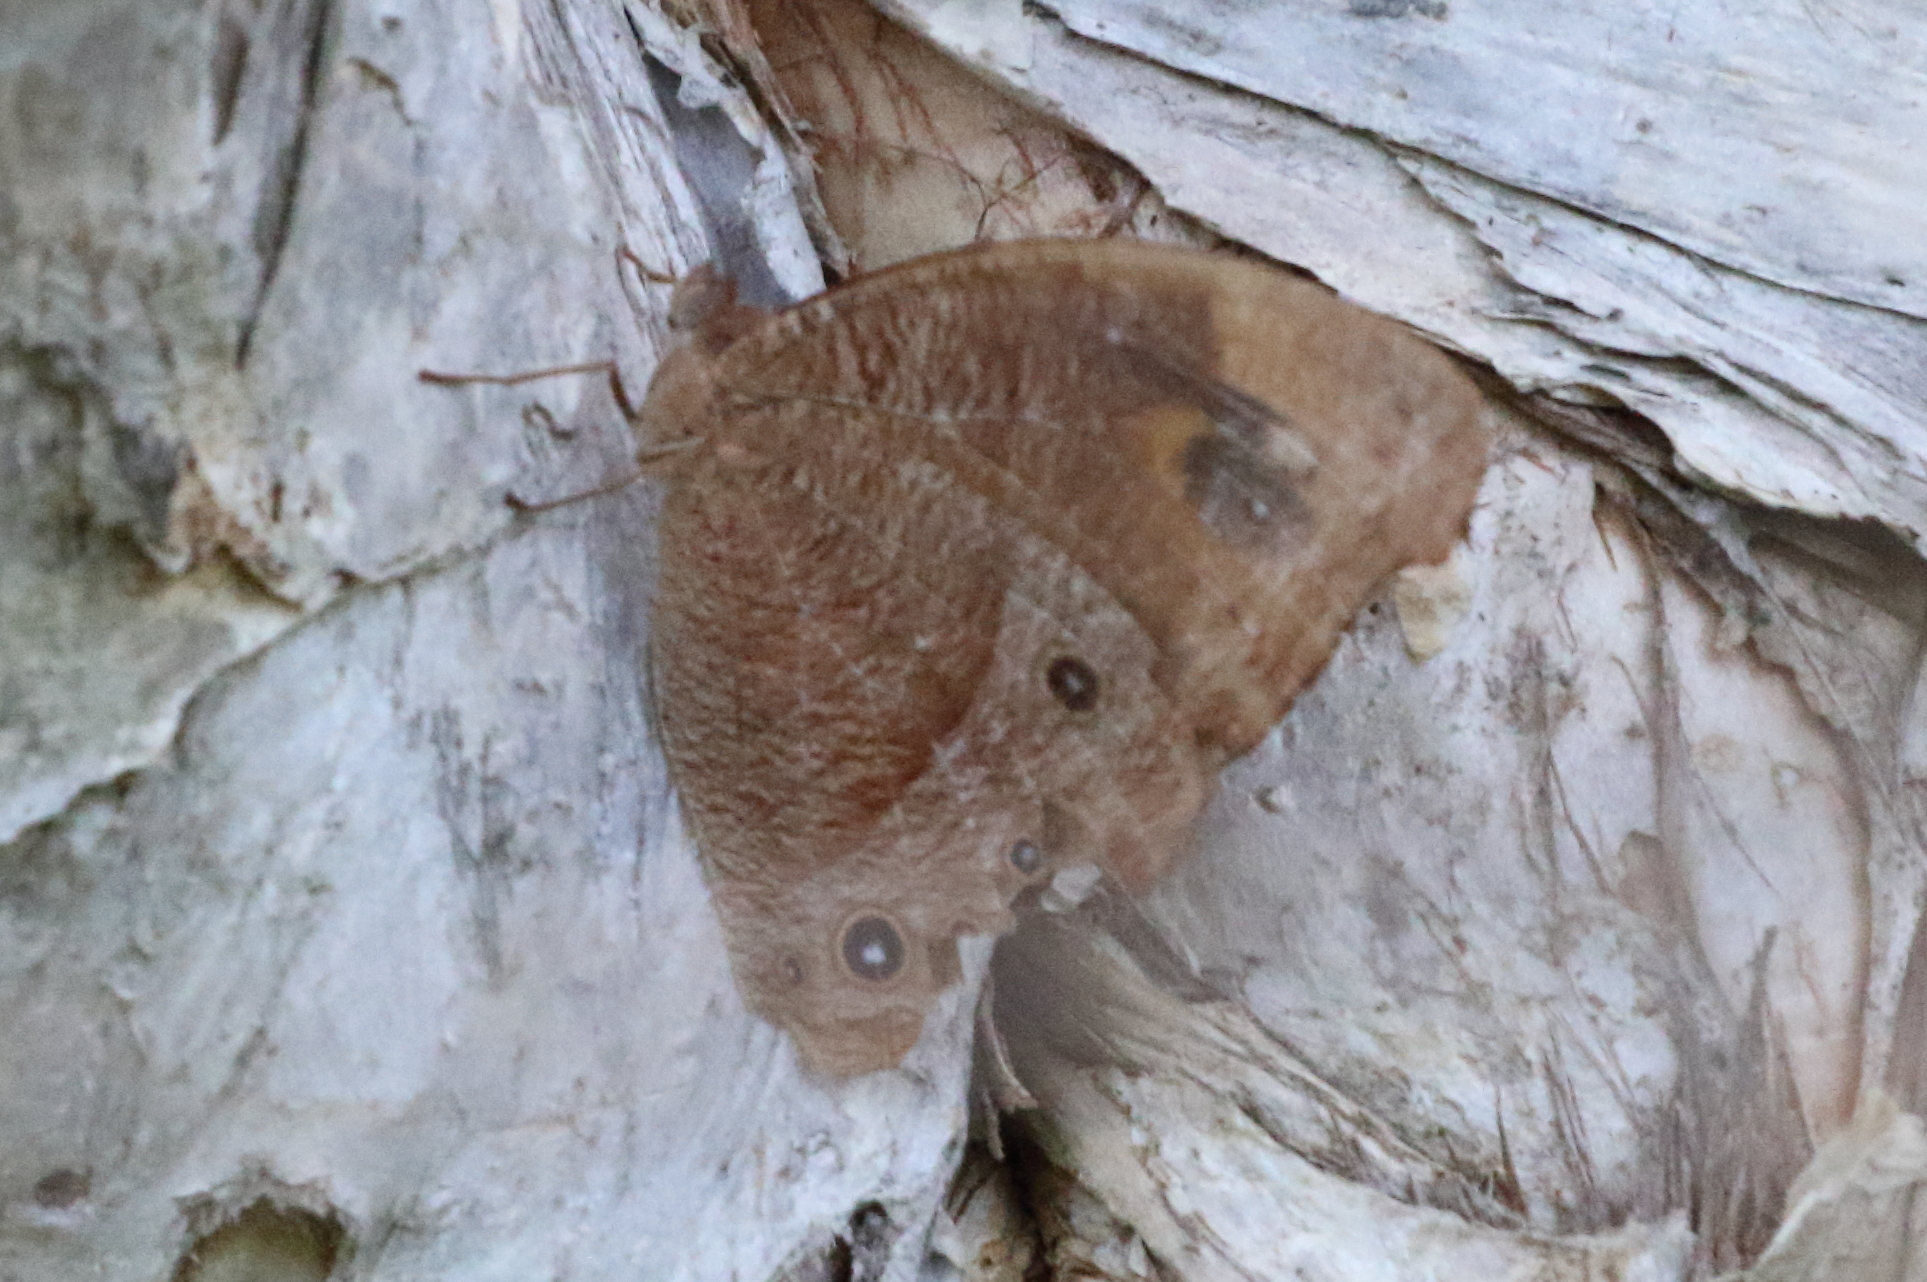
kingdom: Animalia
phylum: Arthropoda
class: Insecta
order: Lepidoptera
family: Nymphalidae
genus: Melanitis
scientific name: Melanitis leda
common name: Twilight brown
